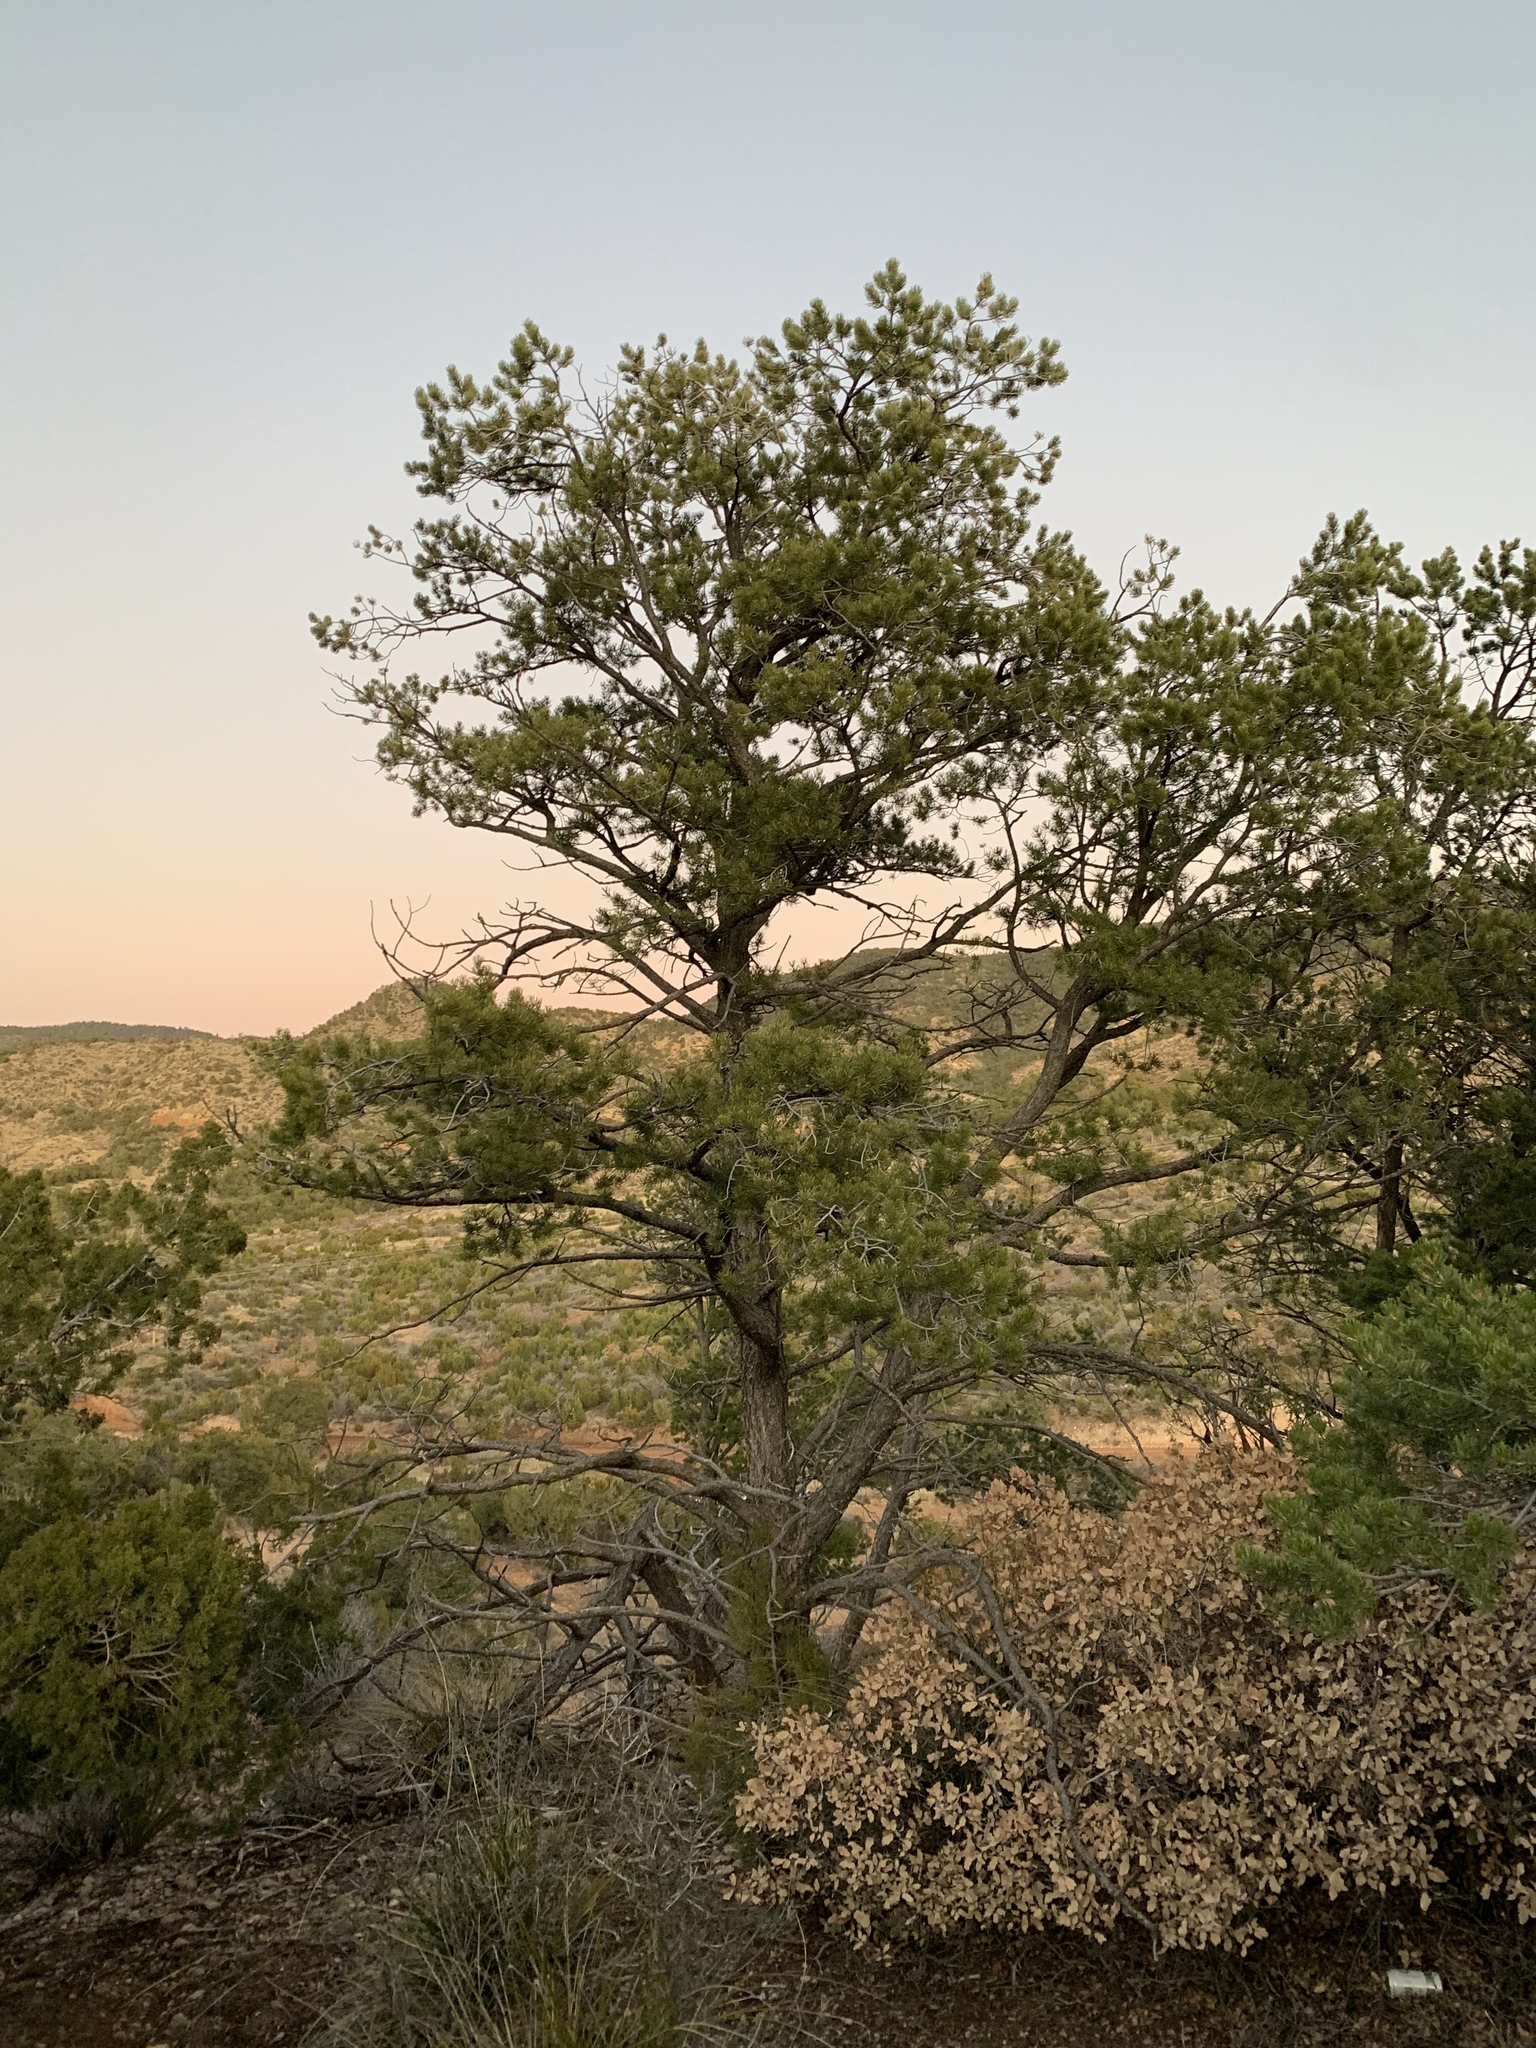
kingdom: Plantae
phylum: Tracheophyta
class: Pinopsida
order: Pinales
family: Pinaceae
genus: Pinus
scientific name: Pinus edulis
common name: Colorado pinyon
